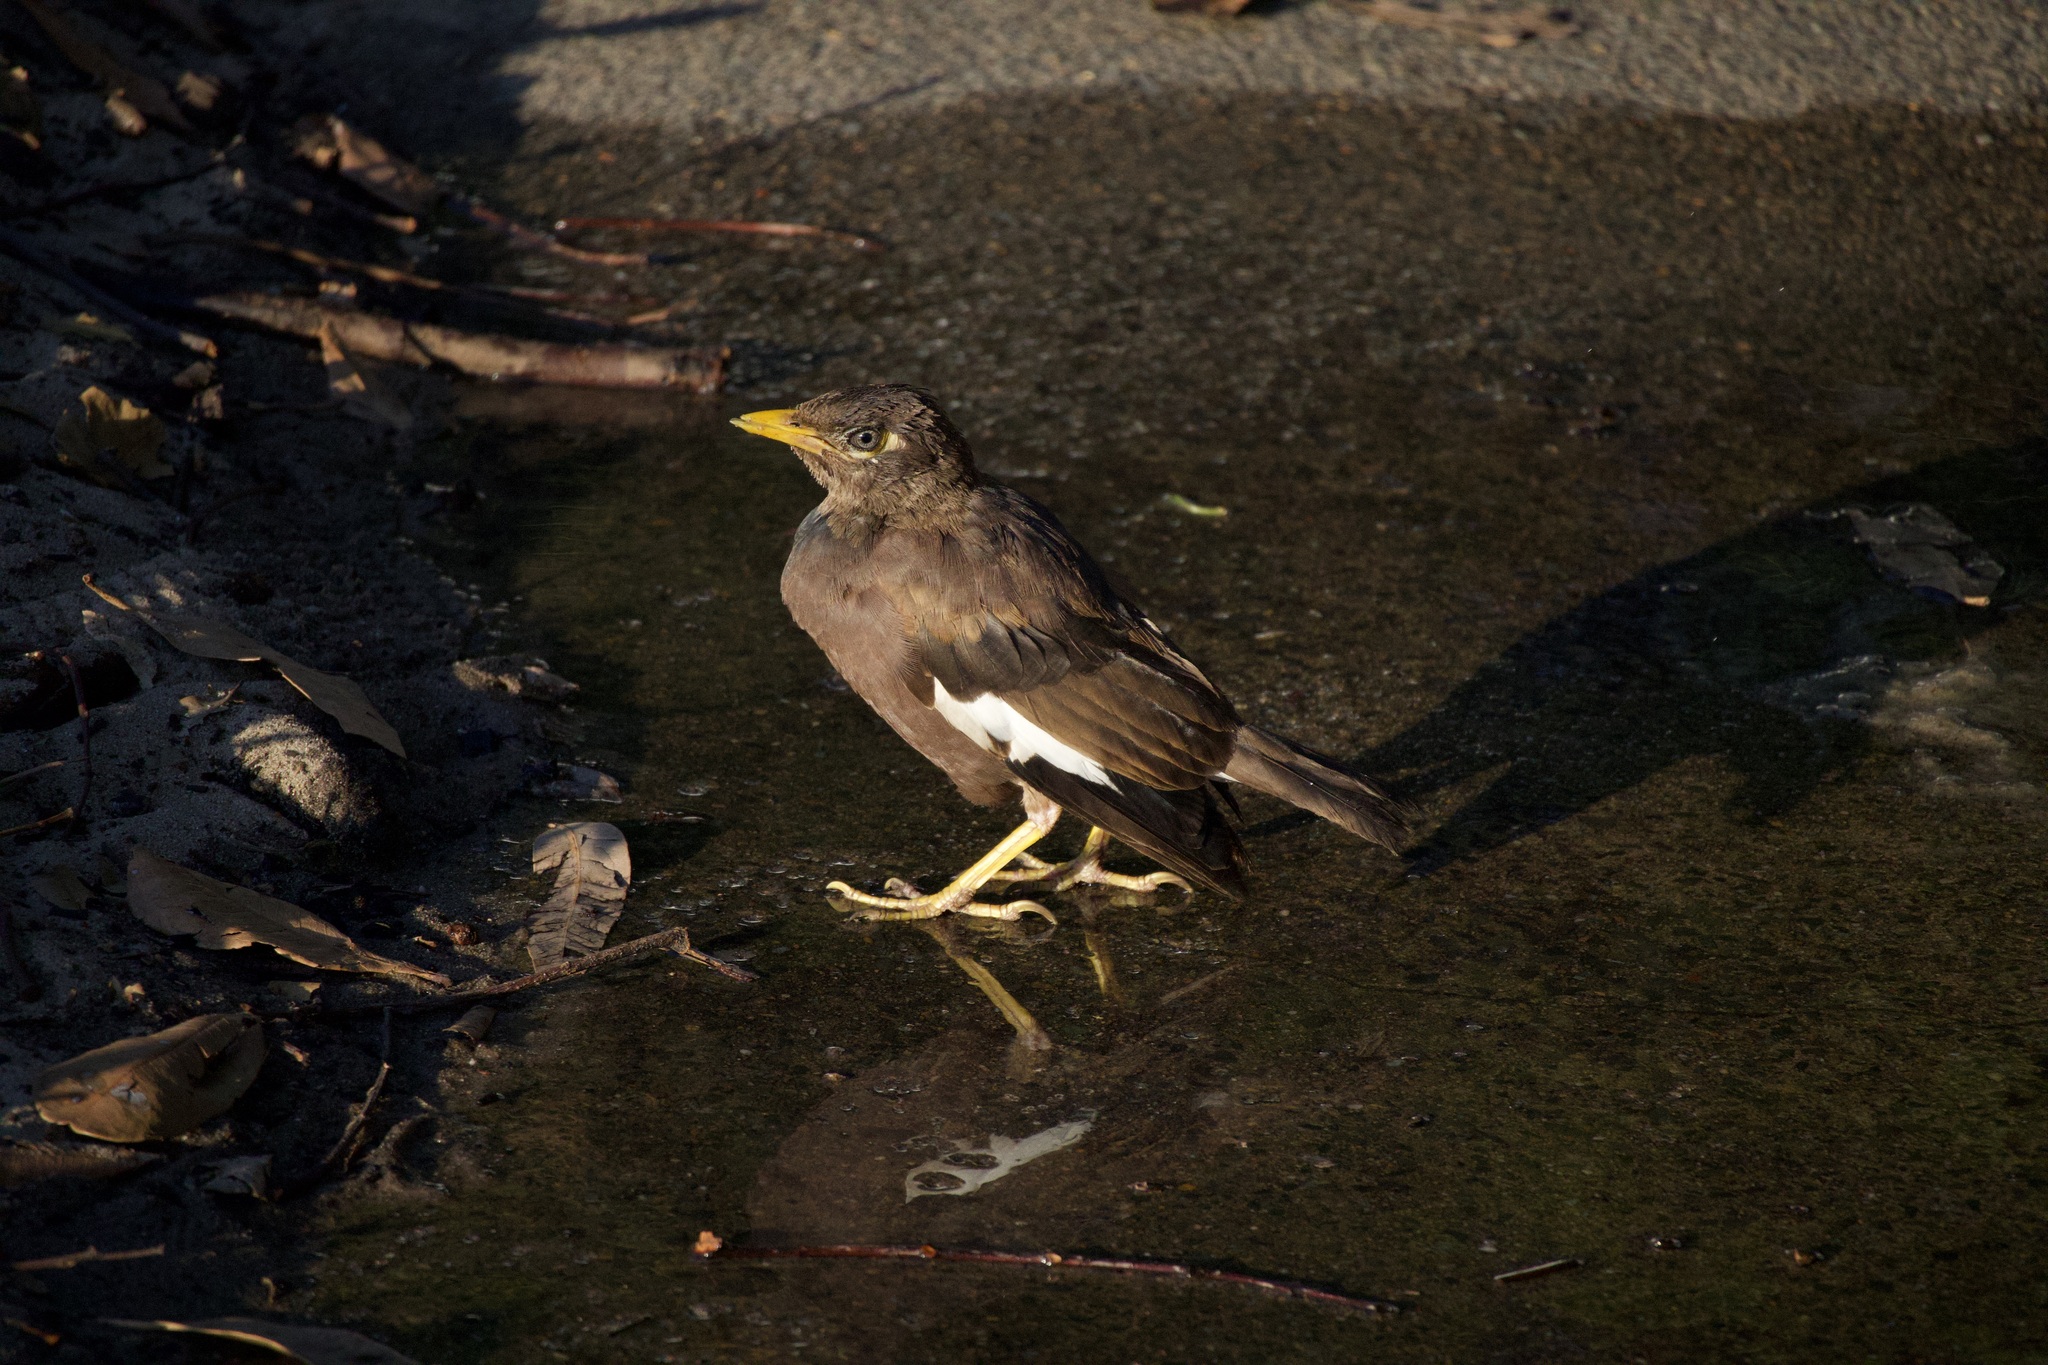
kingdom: Animalia
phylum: Chordata
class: Aves
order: Passeriformes
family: Sturnidae
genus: Acridotheres
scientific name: Acridotheres tristis
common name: Common myna
